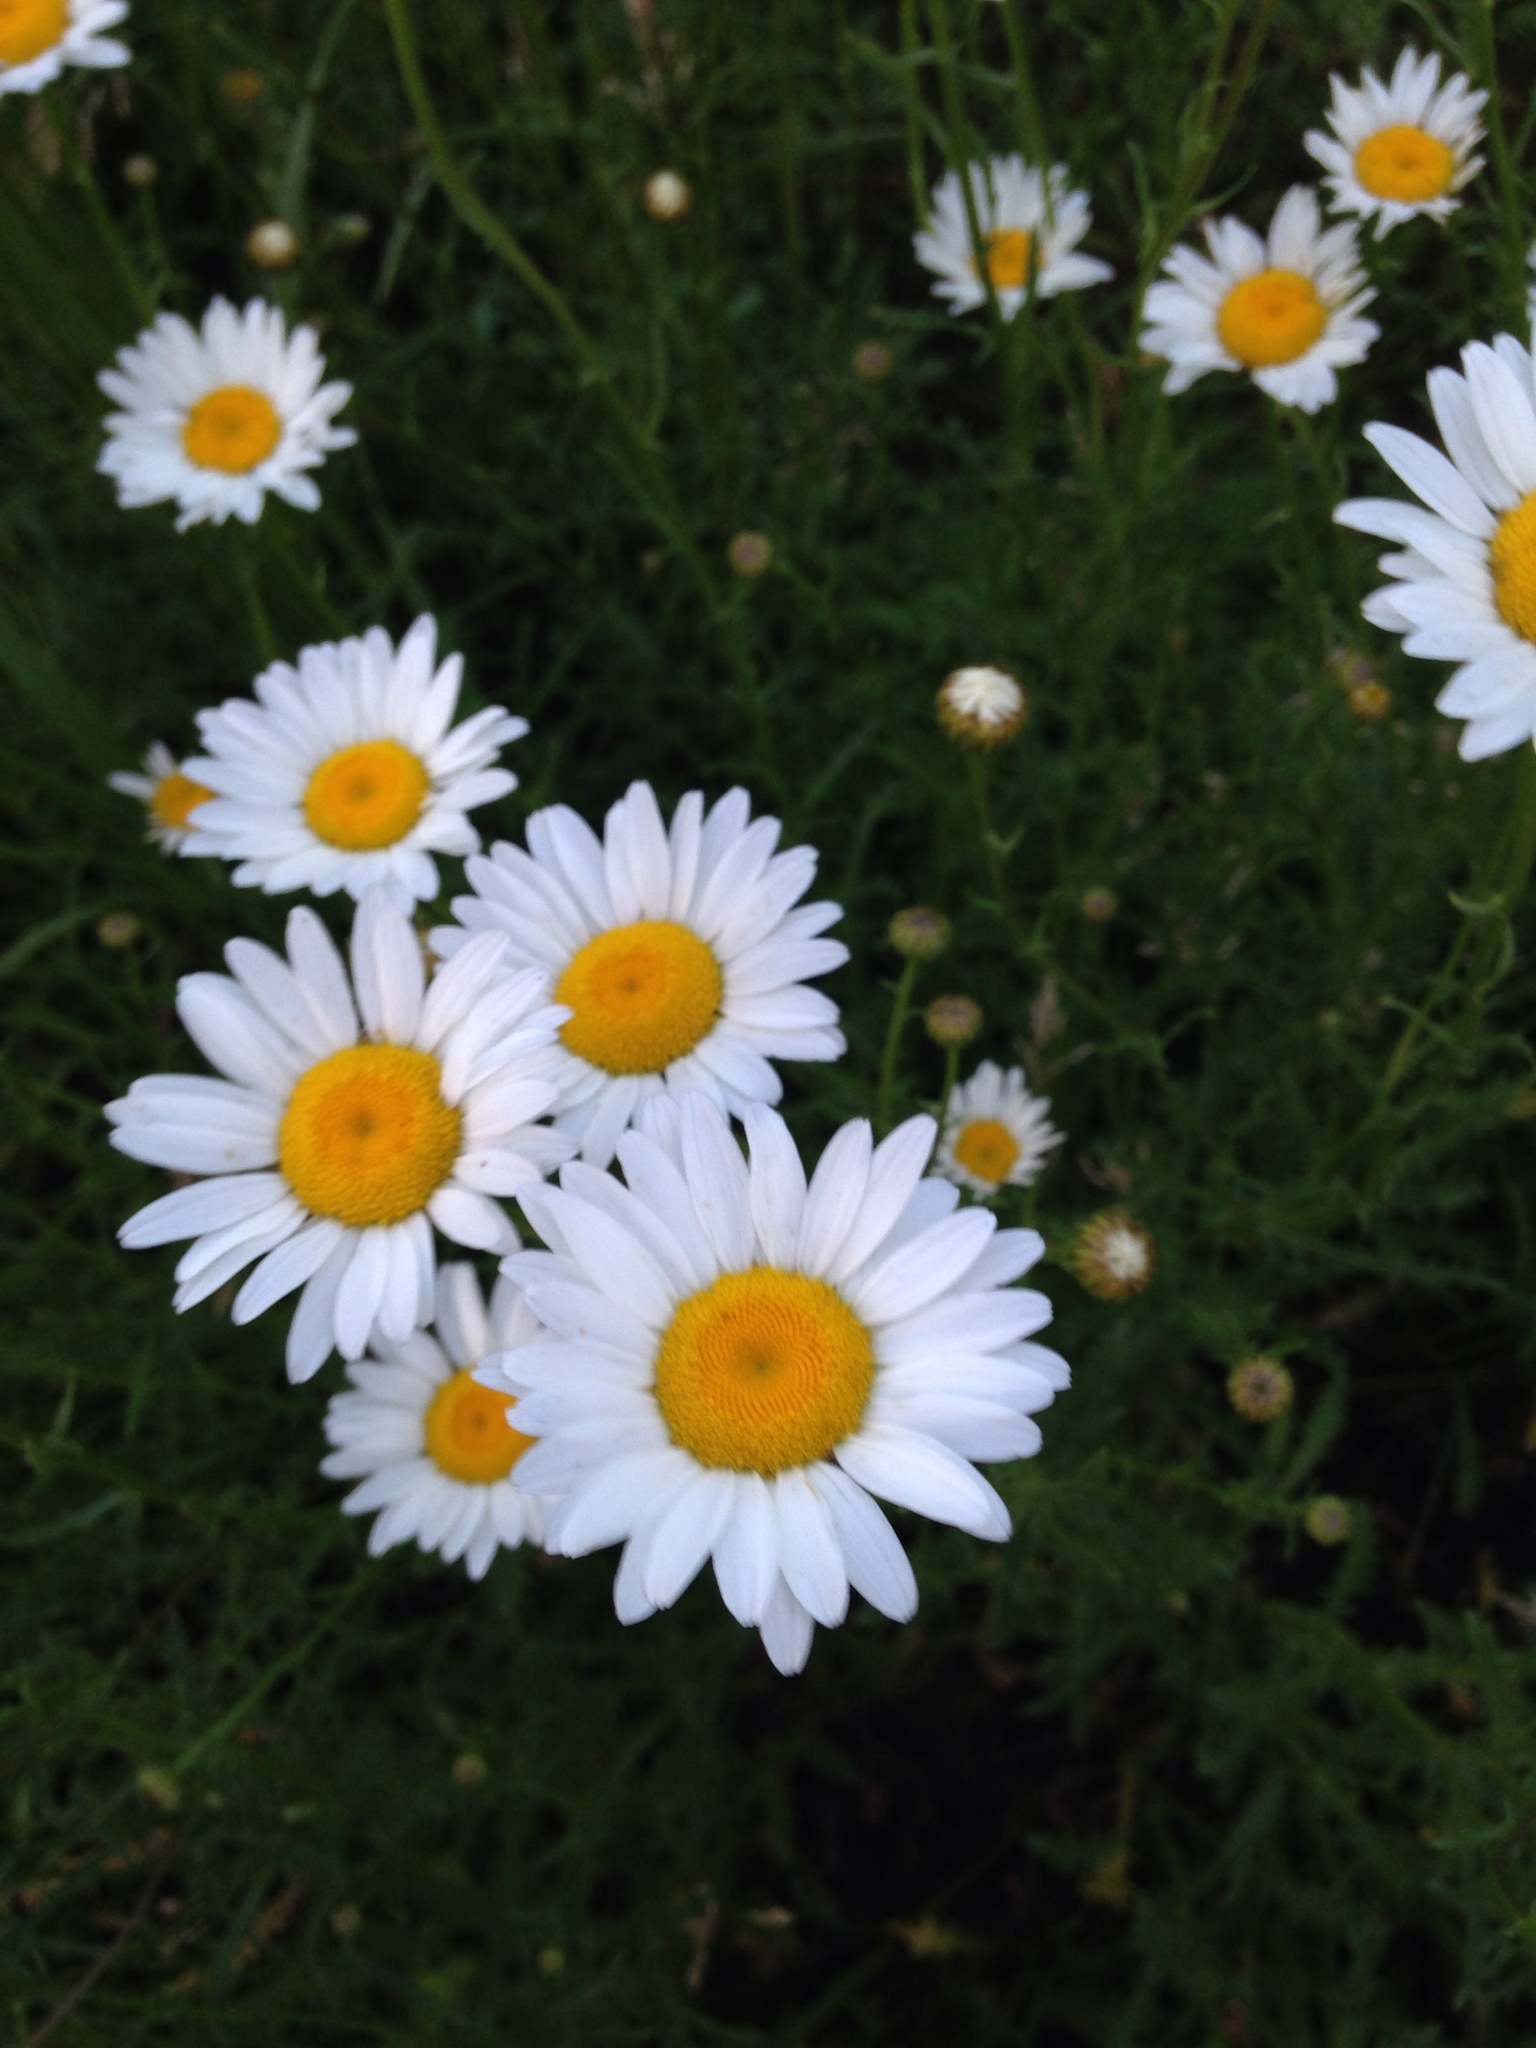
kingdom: Plantae
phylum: Tracheophyta
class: Magnoliopsida
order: Asterales
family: Asteraceae
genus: Leucanthemum
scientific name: Leucanthemum vulgare
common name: Oxeye daisy
